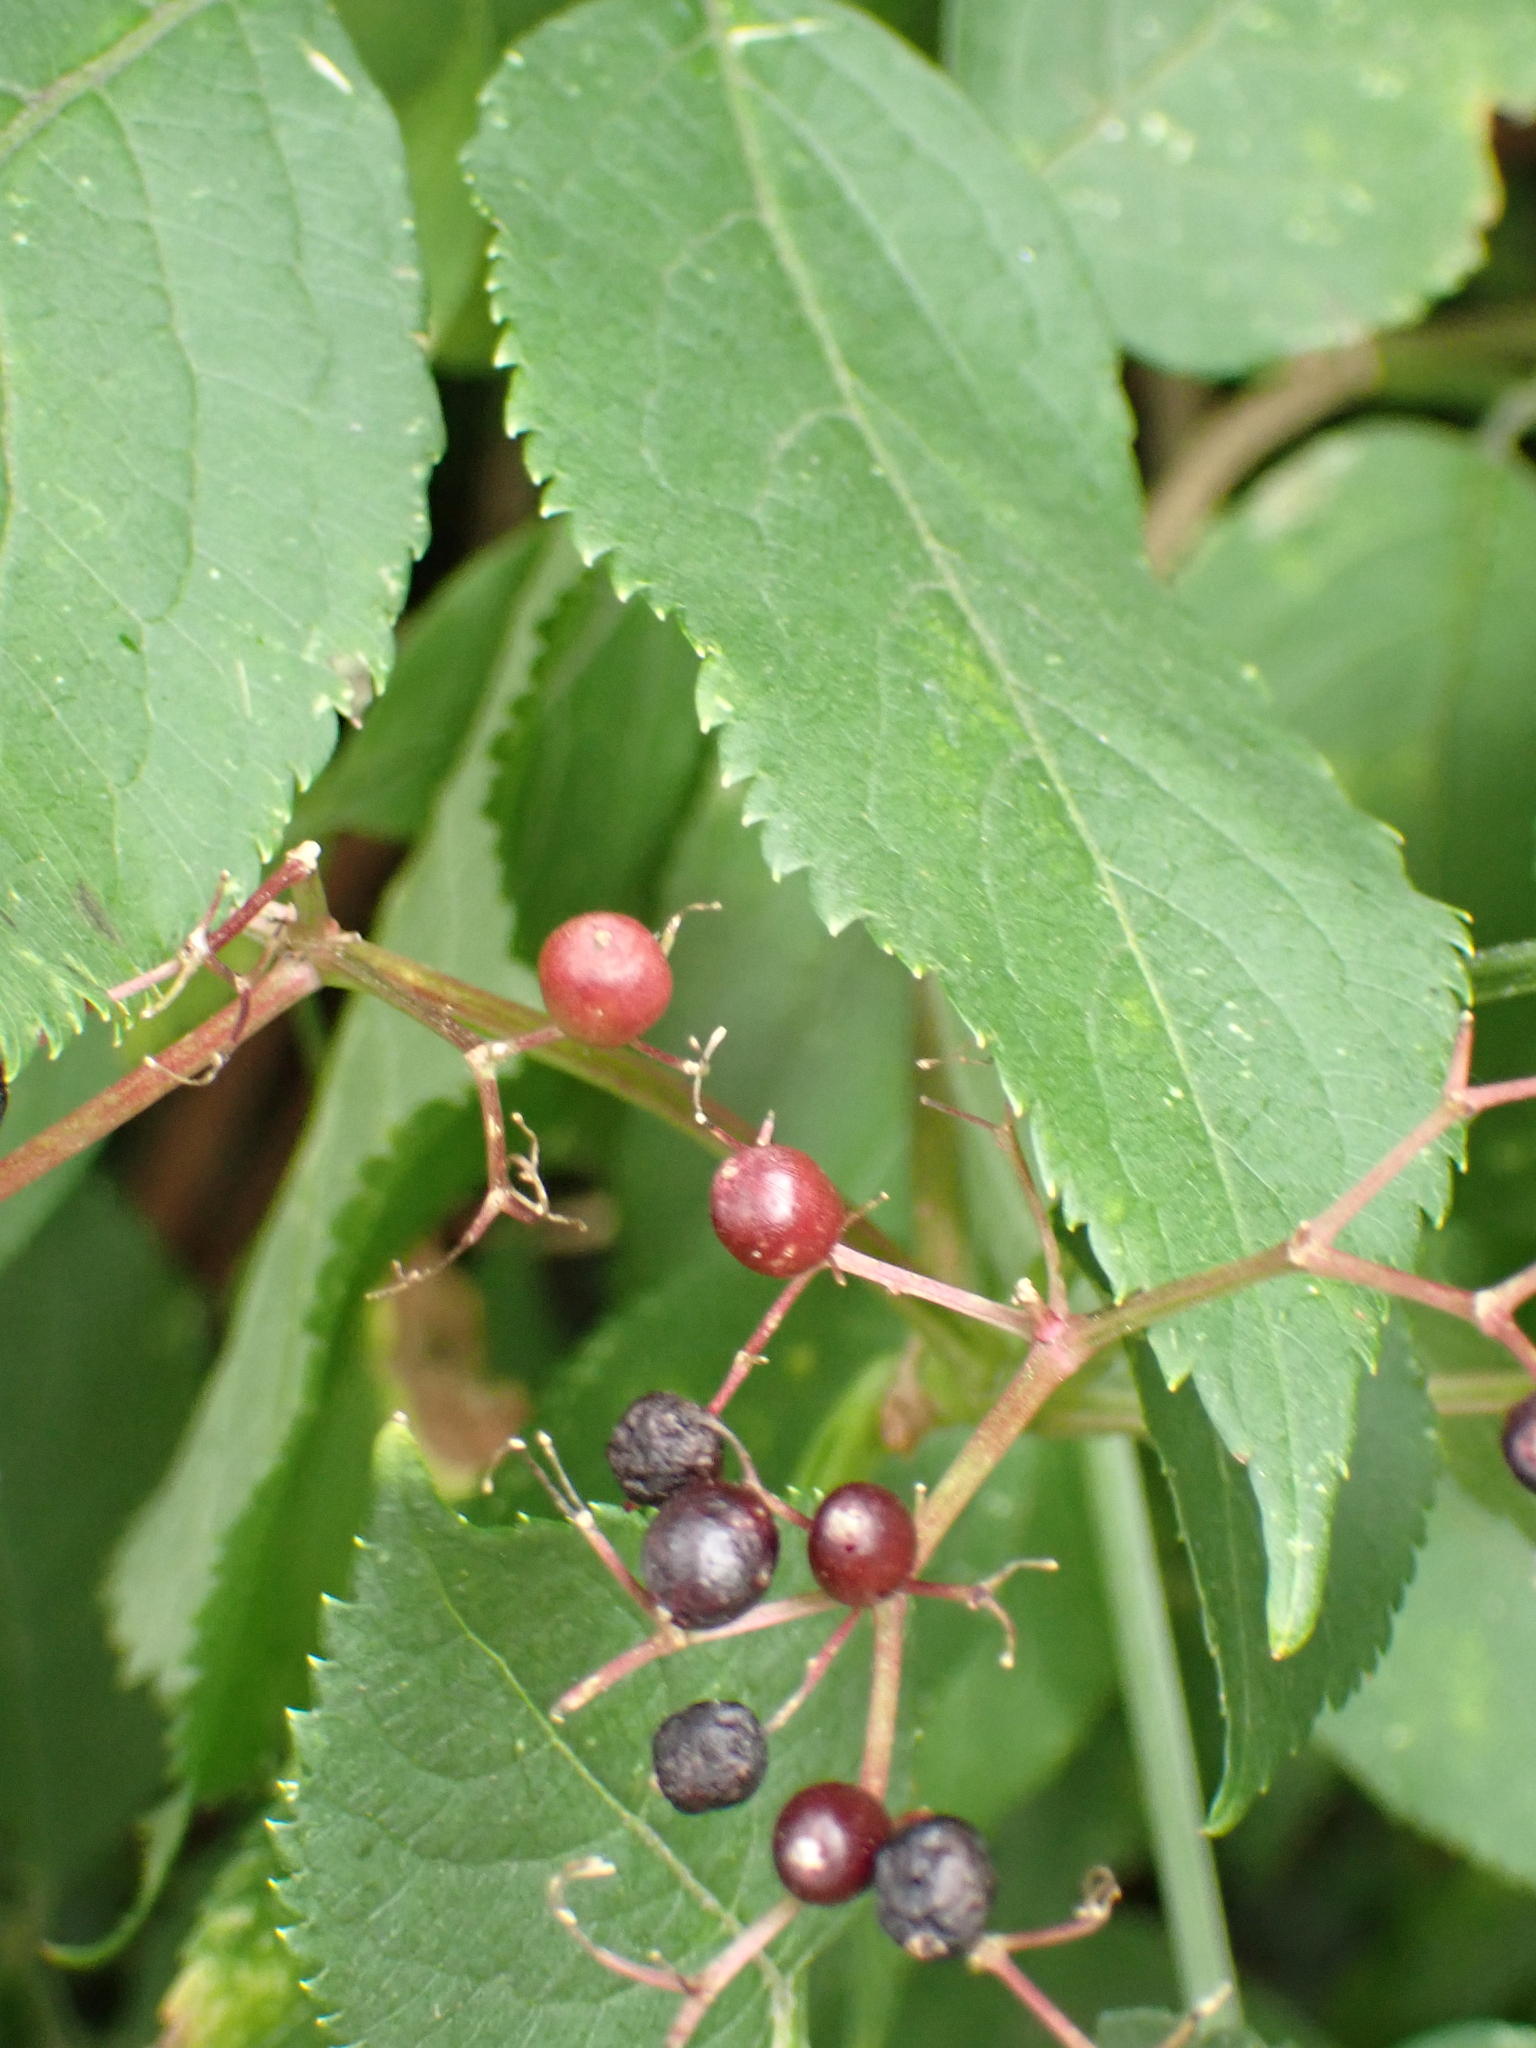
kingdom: Plantae
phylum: Tracheophyta
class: Magnoliopsida
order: Dipsacales
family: Viburnaceae
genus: Sambucus
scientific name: Sambucus nigra
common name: Elder
